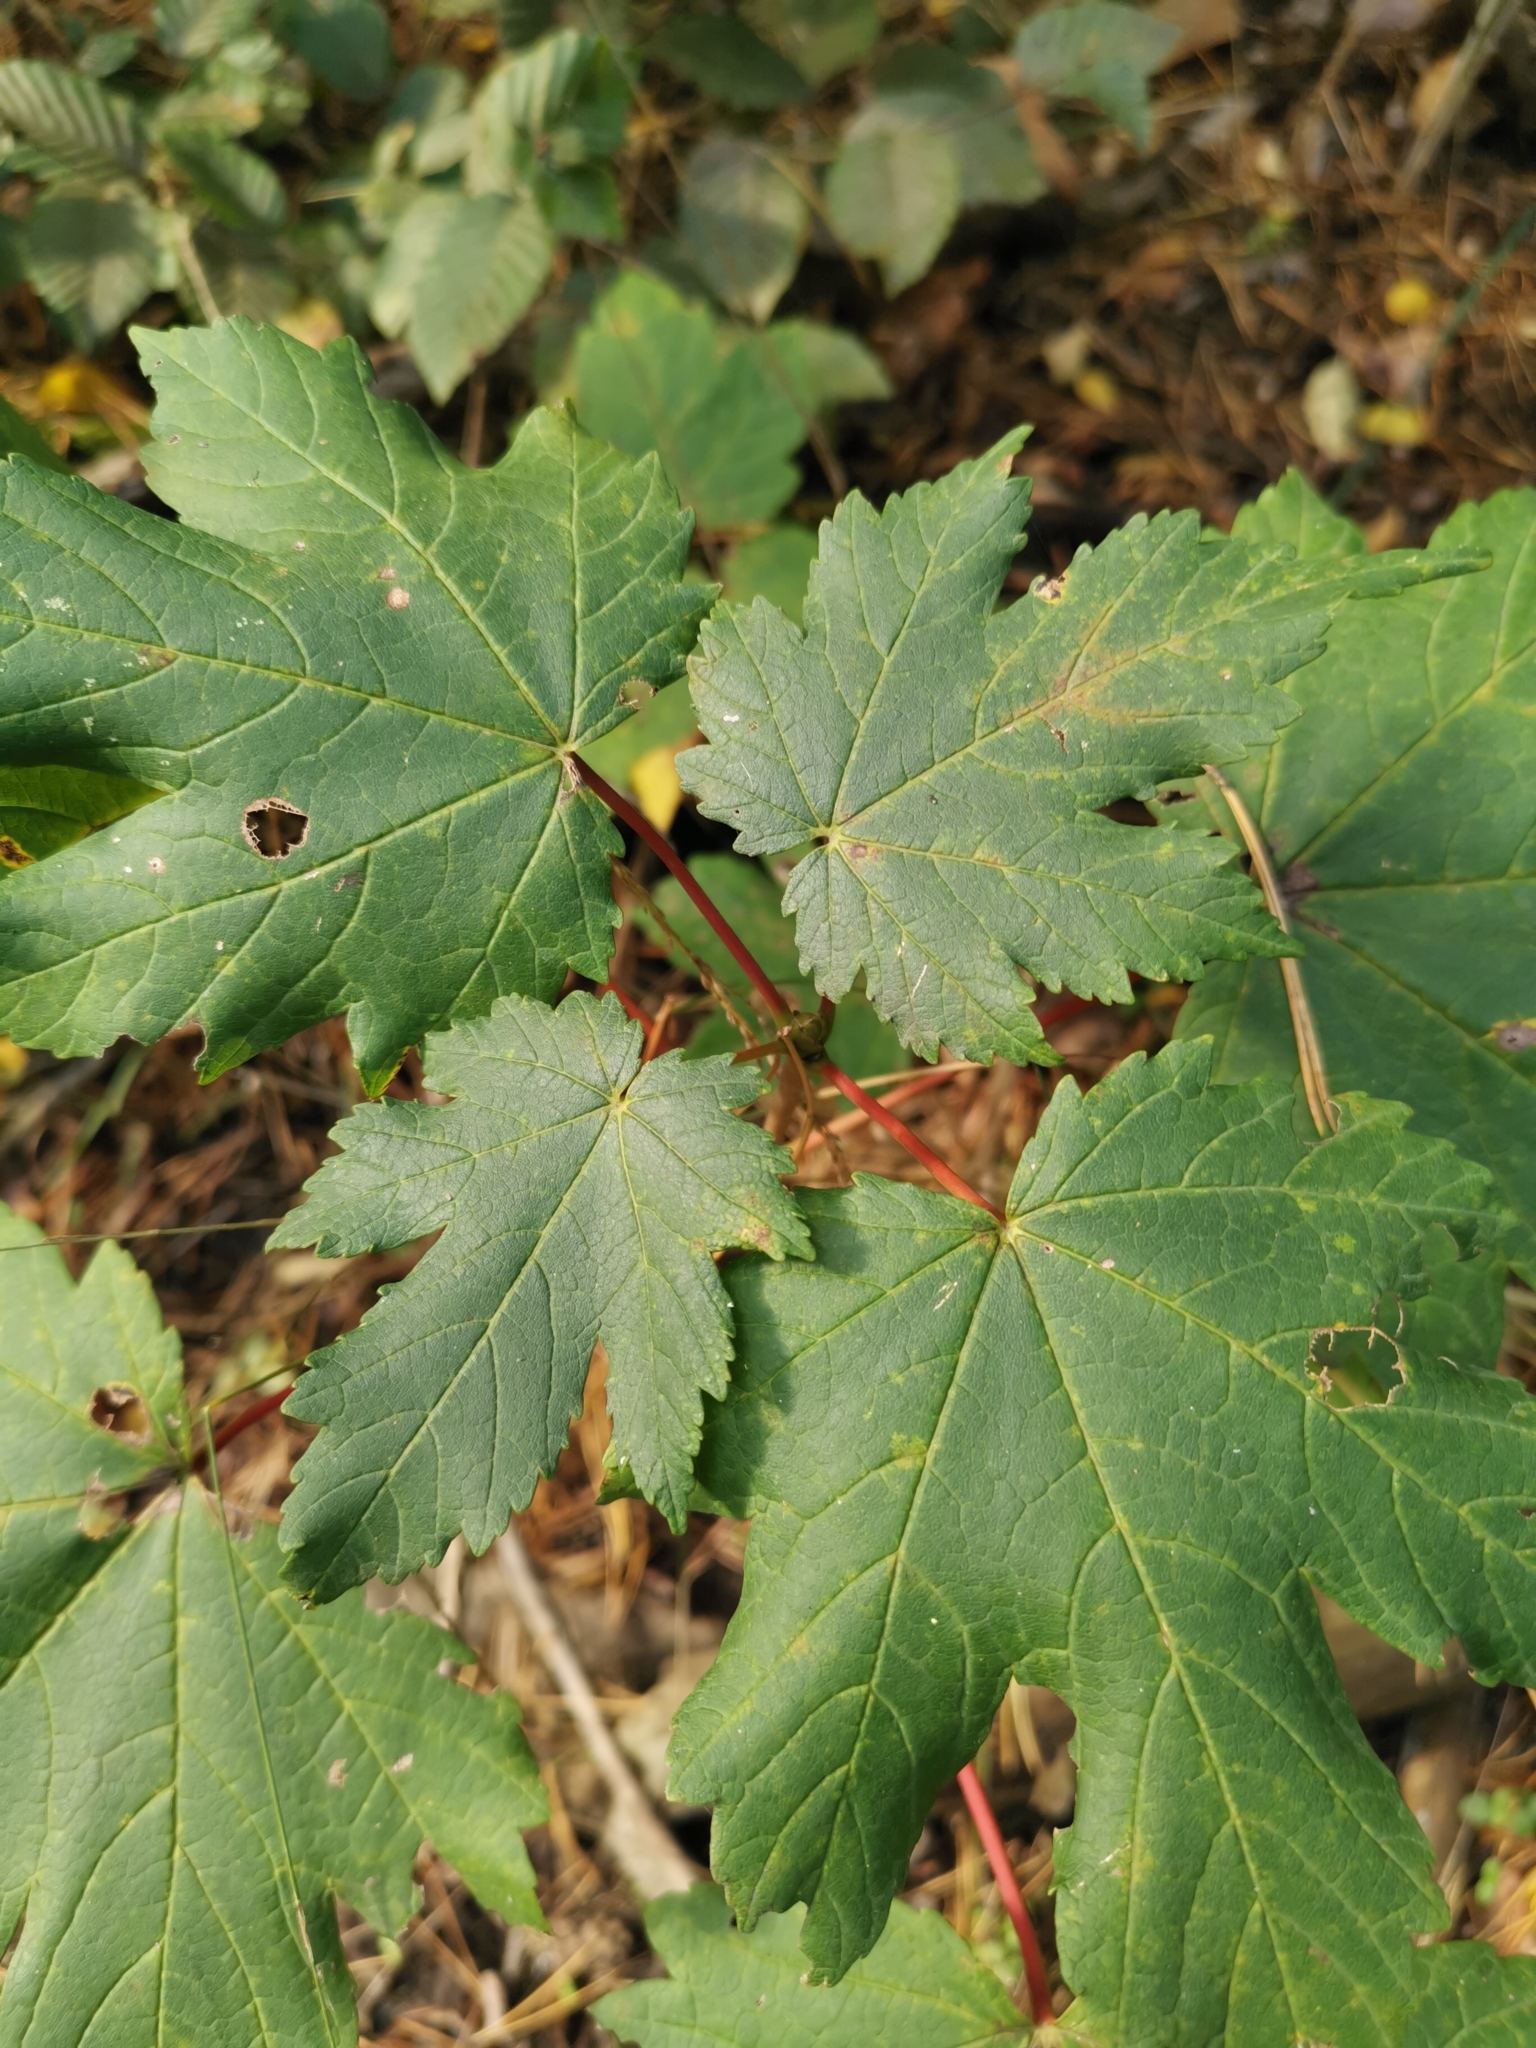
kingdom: Plantae
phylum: Tracheophyta
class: Magnoliopsida
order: Sapindales
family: Sapindaceae
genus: Acer
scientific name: Acer pseudoplatanus
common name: Sycamore
